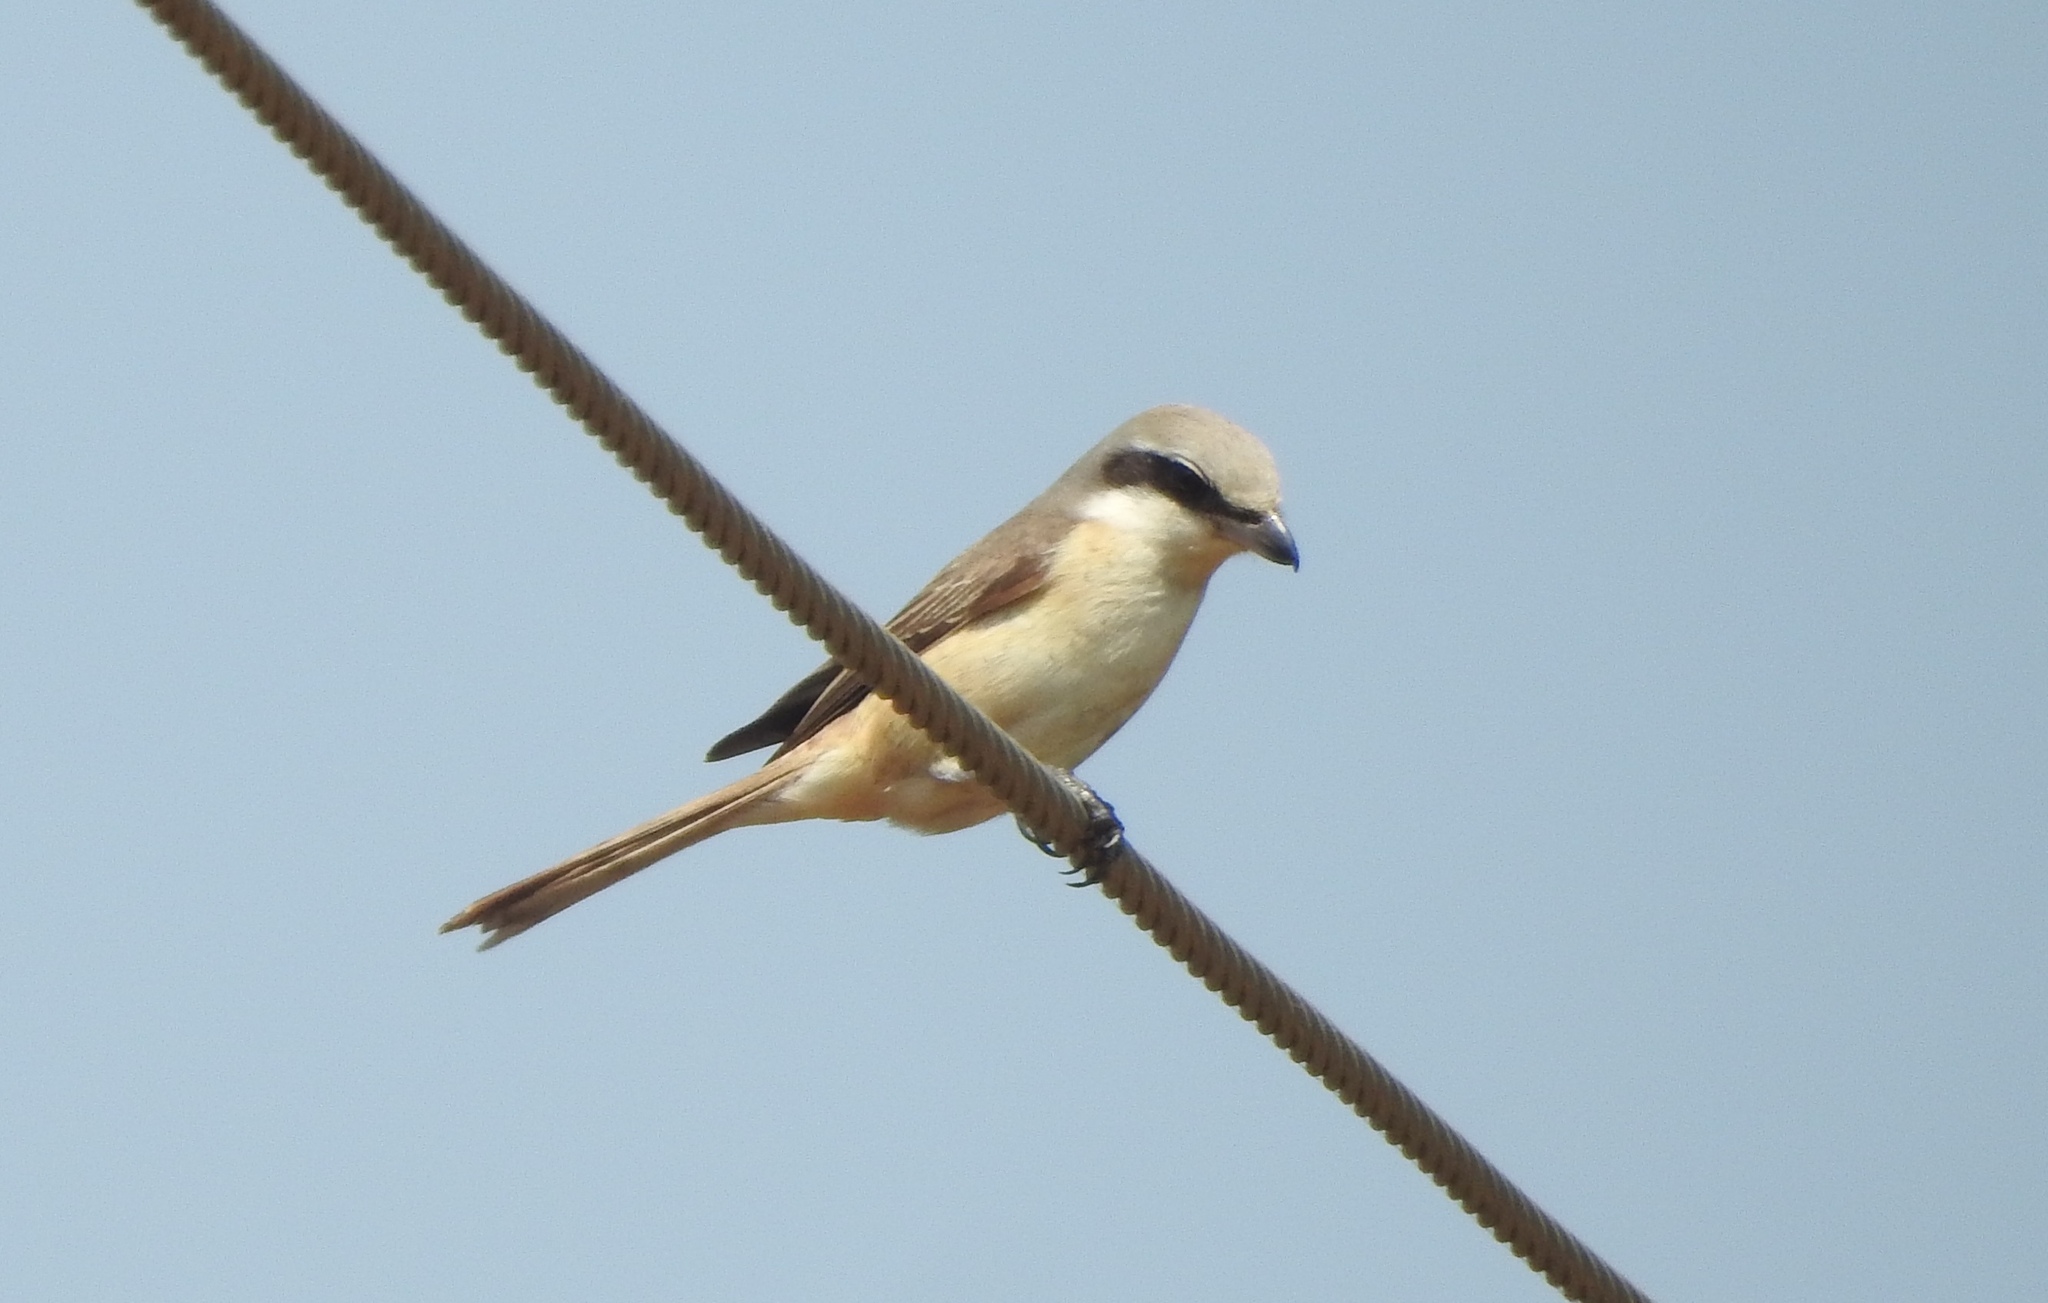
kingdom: Animalia
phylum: Chordata
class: Aves
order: Passeriformes
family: Laniidae
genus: Lanius
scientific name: Lanius cristatus
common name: Brown shrike
